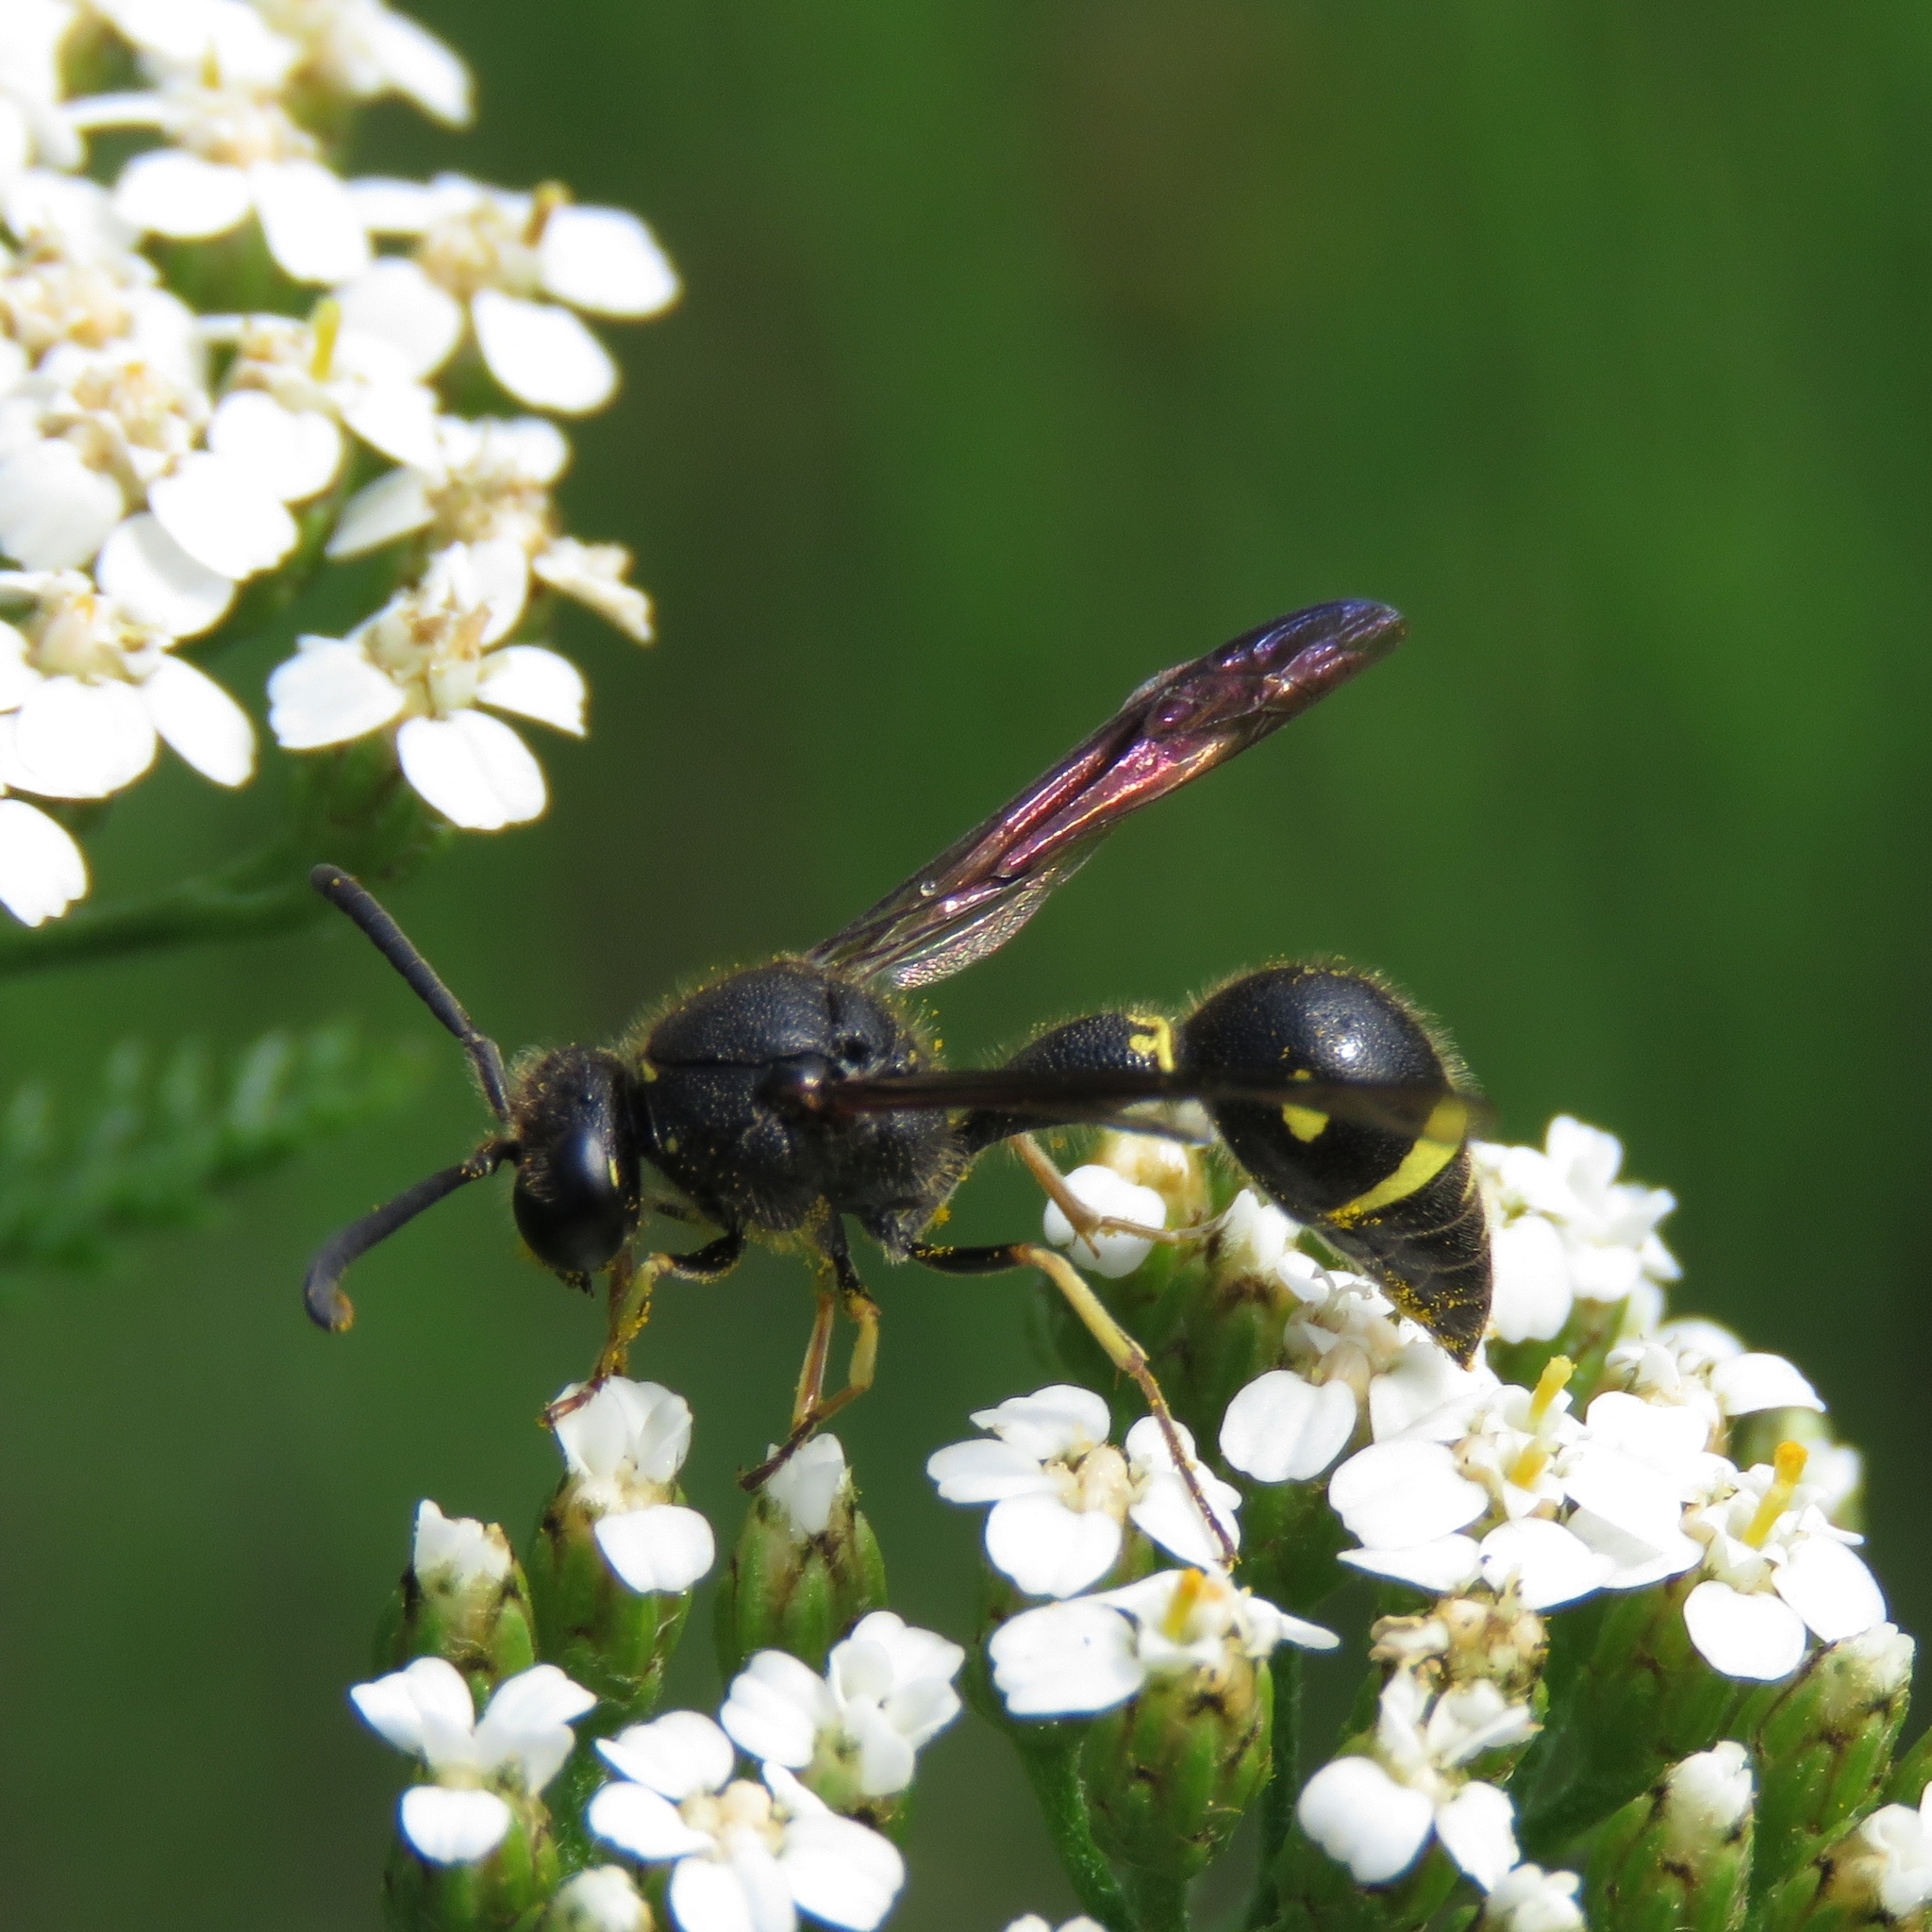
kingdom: Animalia
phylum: Arthropoda
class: Insecta
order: Hymenoptera
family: Vespidae
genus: Eumenes
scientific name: Eumenes coronatus
